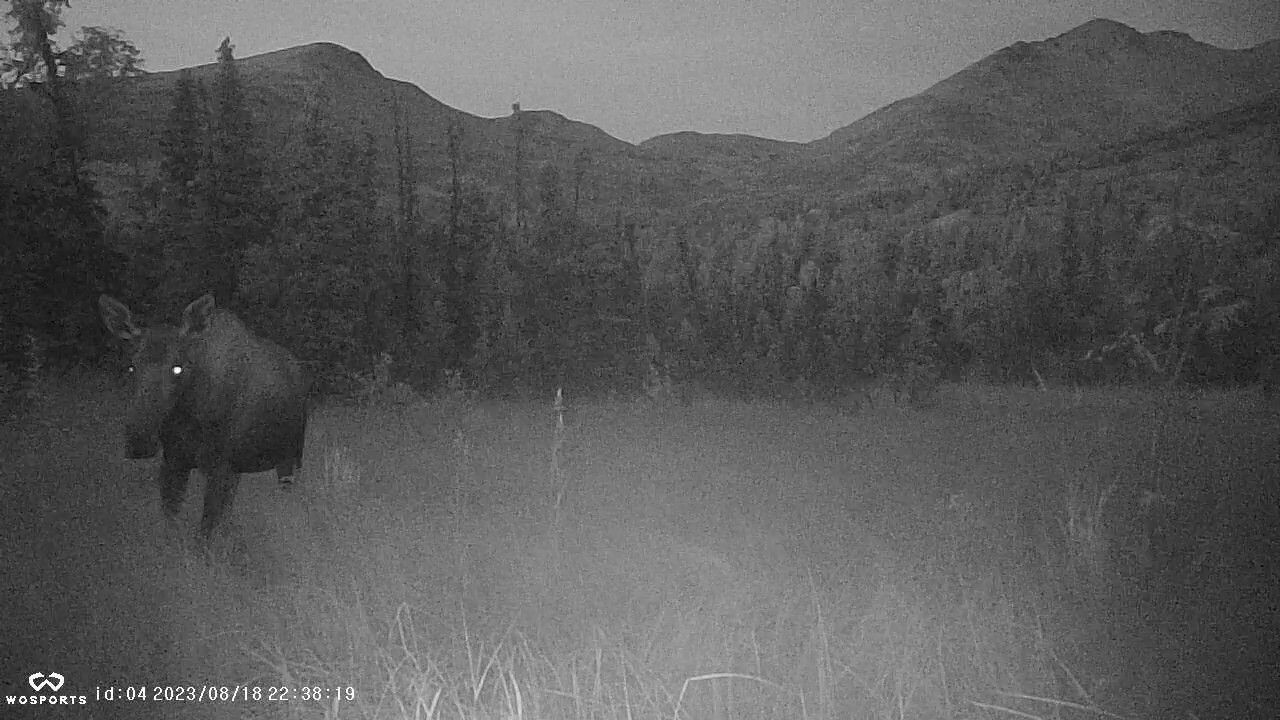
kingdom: Animalia
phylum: Chordata
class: Mammalia
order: Artiodactyla
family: Cervidae
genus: Alces
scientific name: Alces alces
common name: Moose
